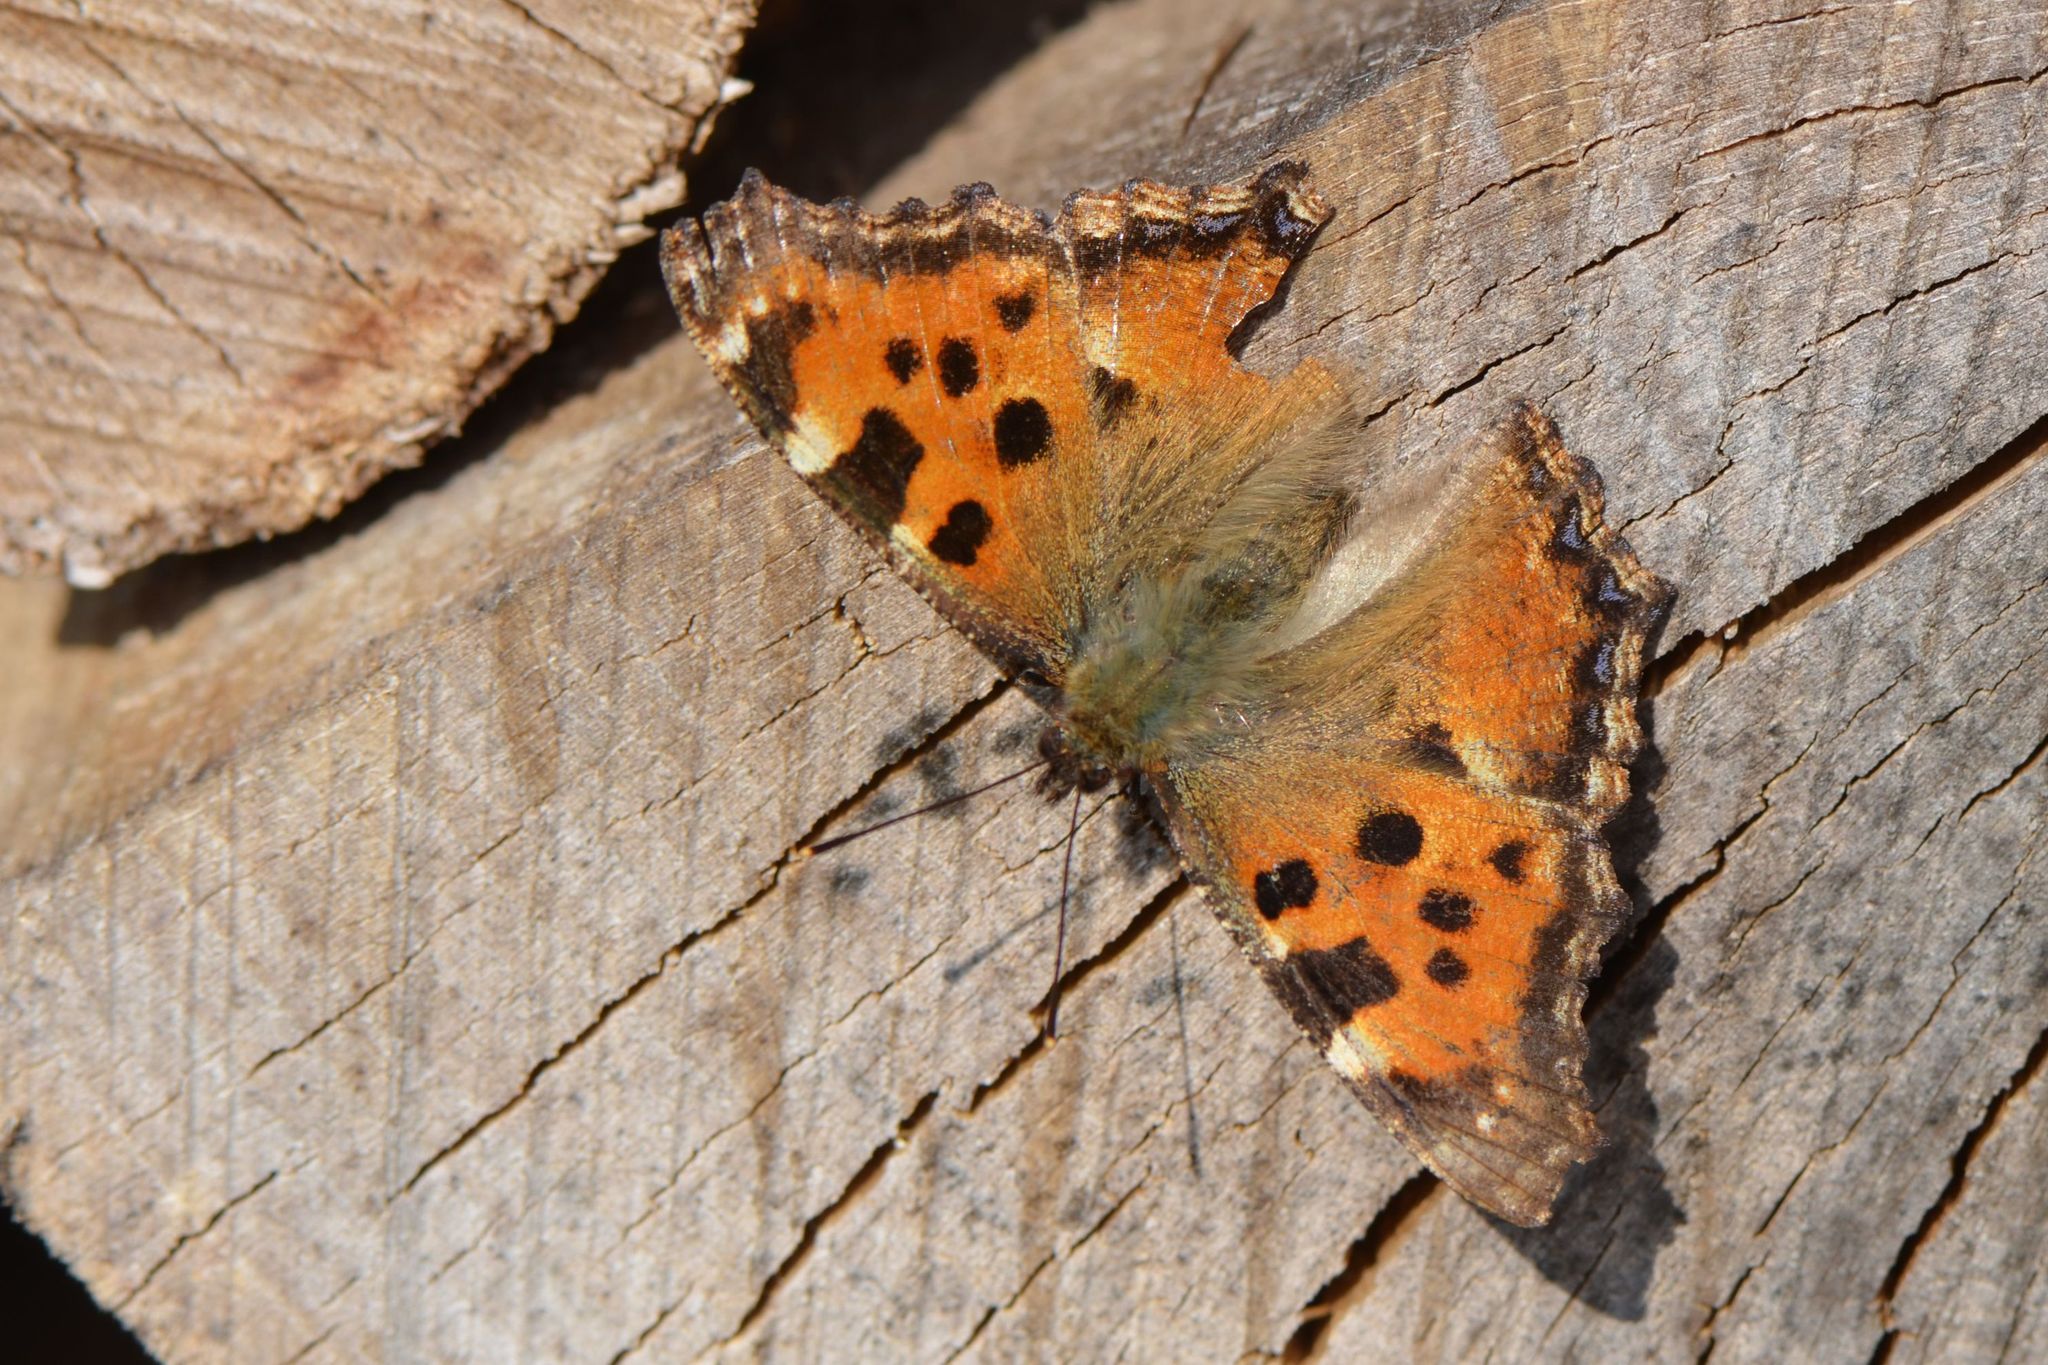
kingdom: Animalia
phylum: Arthropoda
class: Insecta
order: Lepidoptera
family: Nymphalidae
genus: Nymphalis
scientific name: Nymphalis polychloros
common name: Large tortoiseshell
